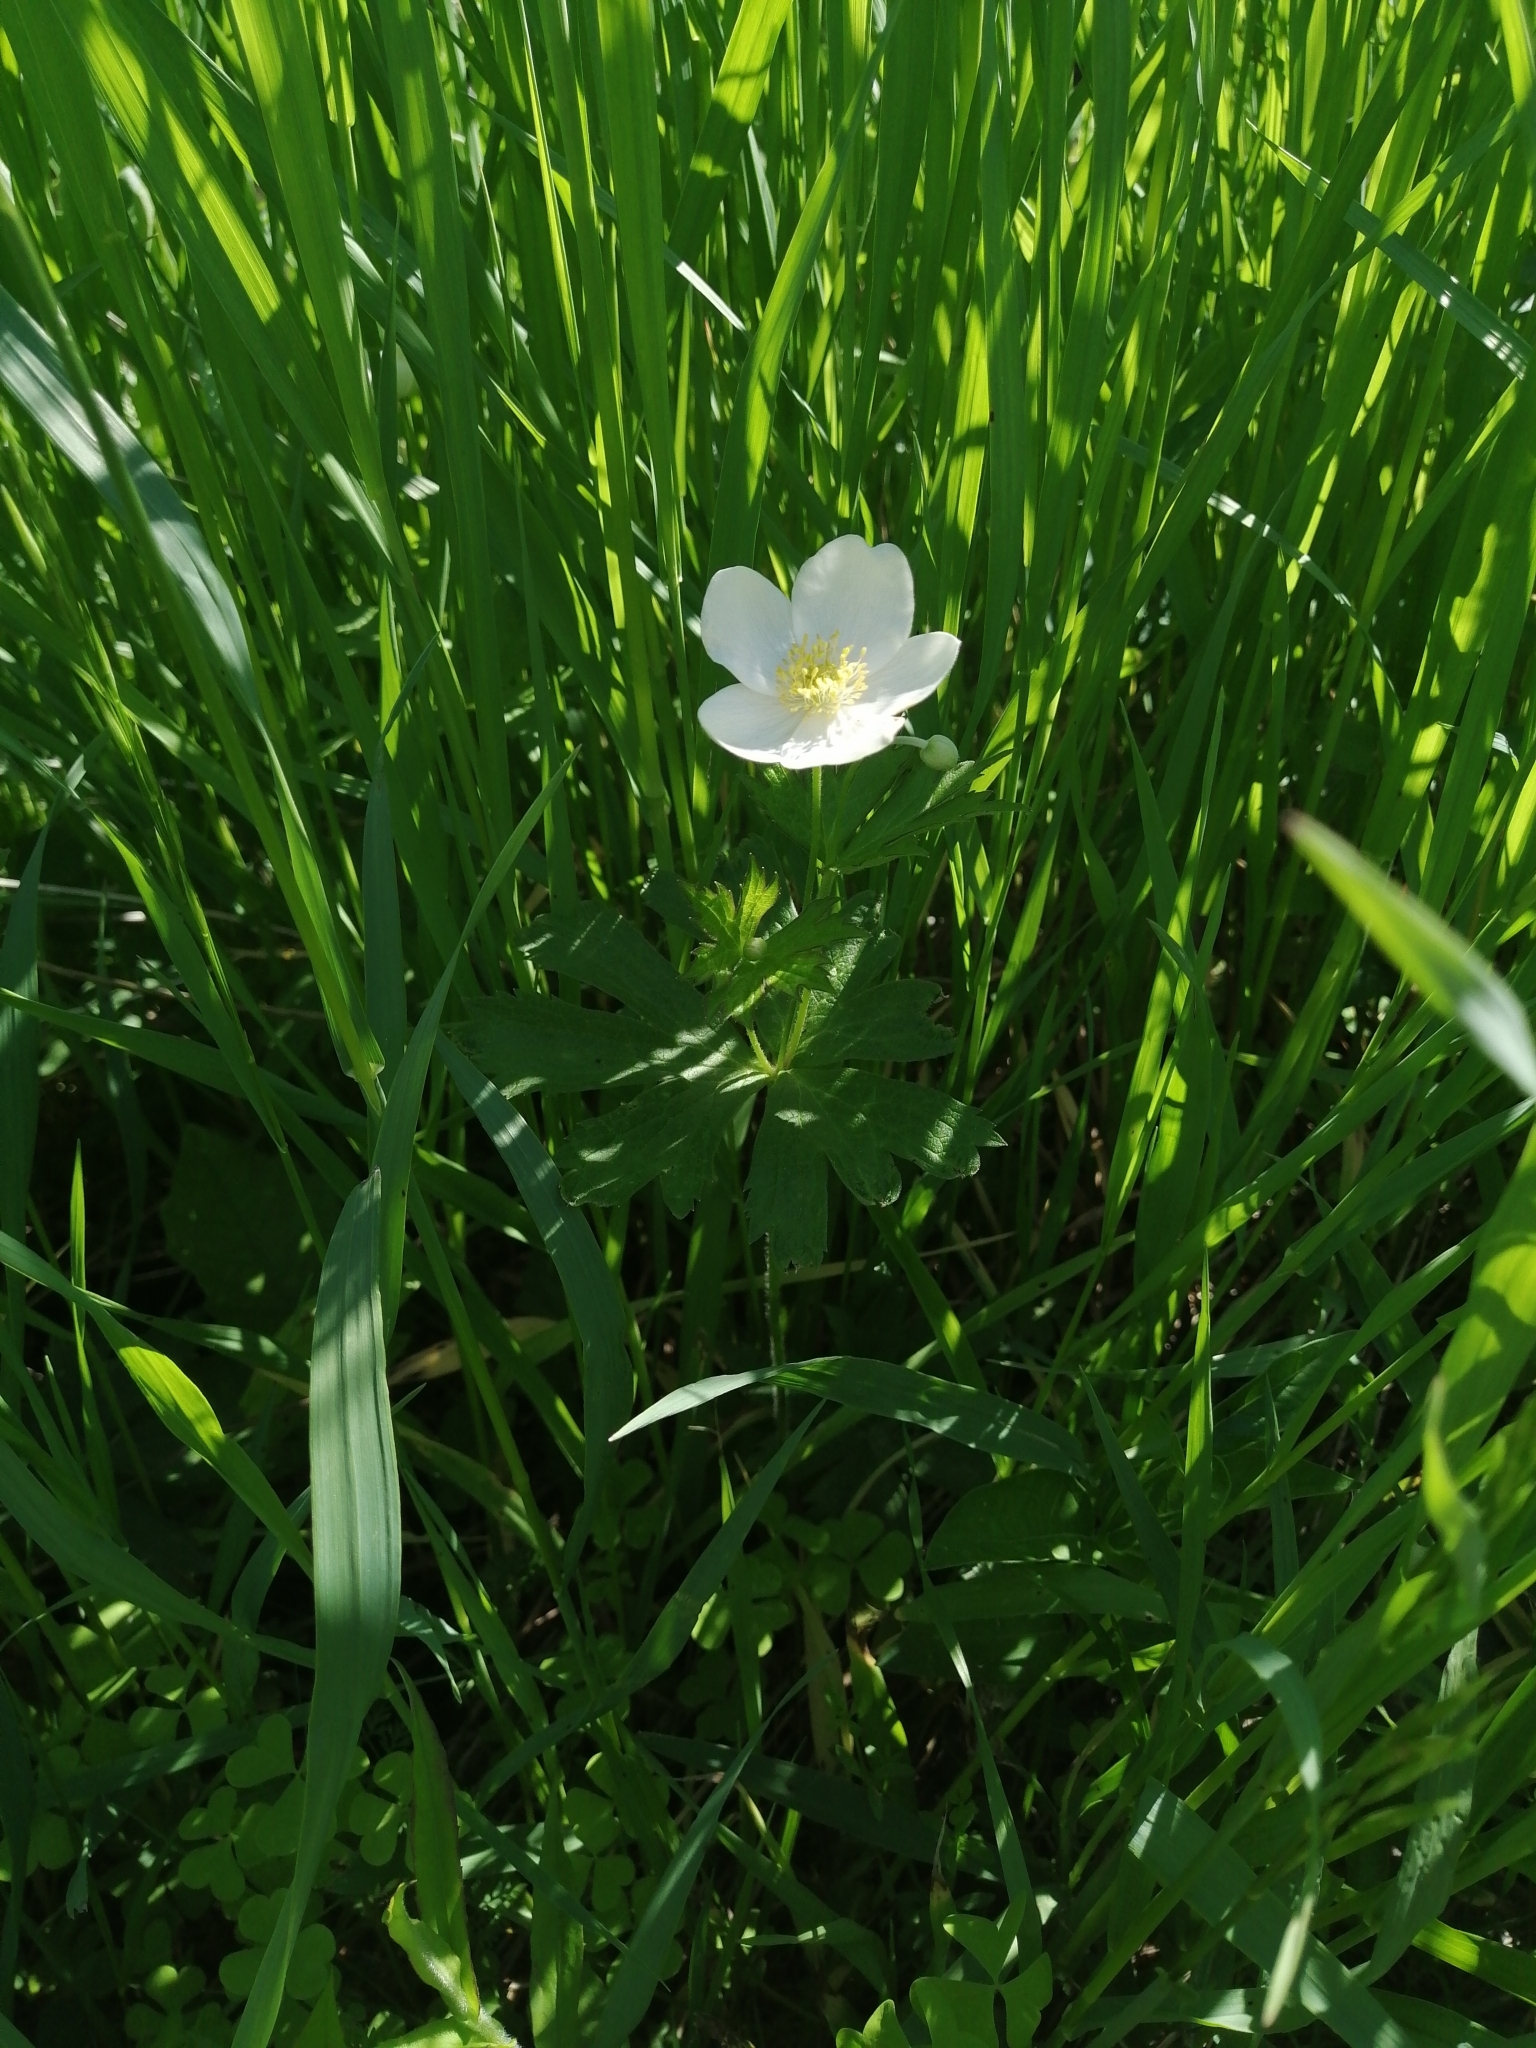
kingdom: Plantae
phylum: Tracheophyta
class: Magnoliopsida
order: Ranunculales
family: Ranunculaceae
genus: Anemonastrum
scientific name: Anemonastrum canadense
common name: Canada anemone
